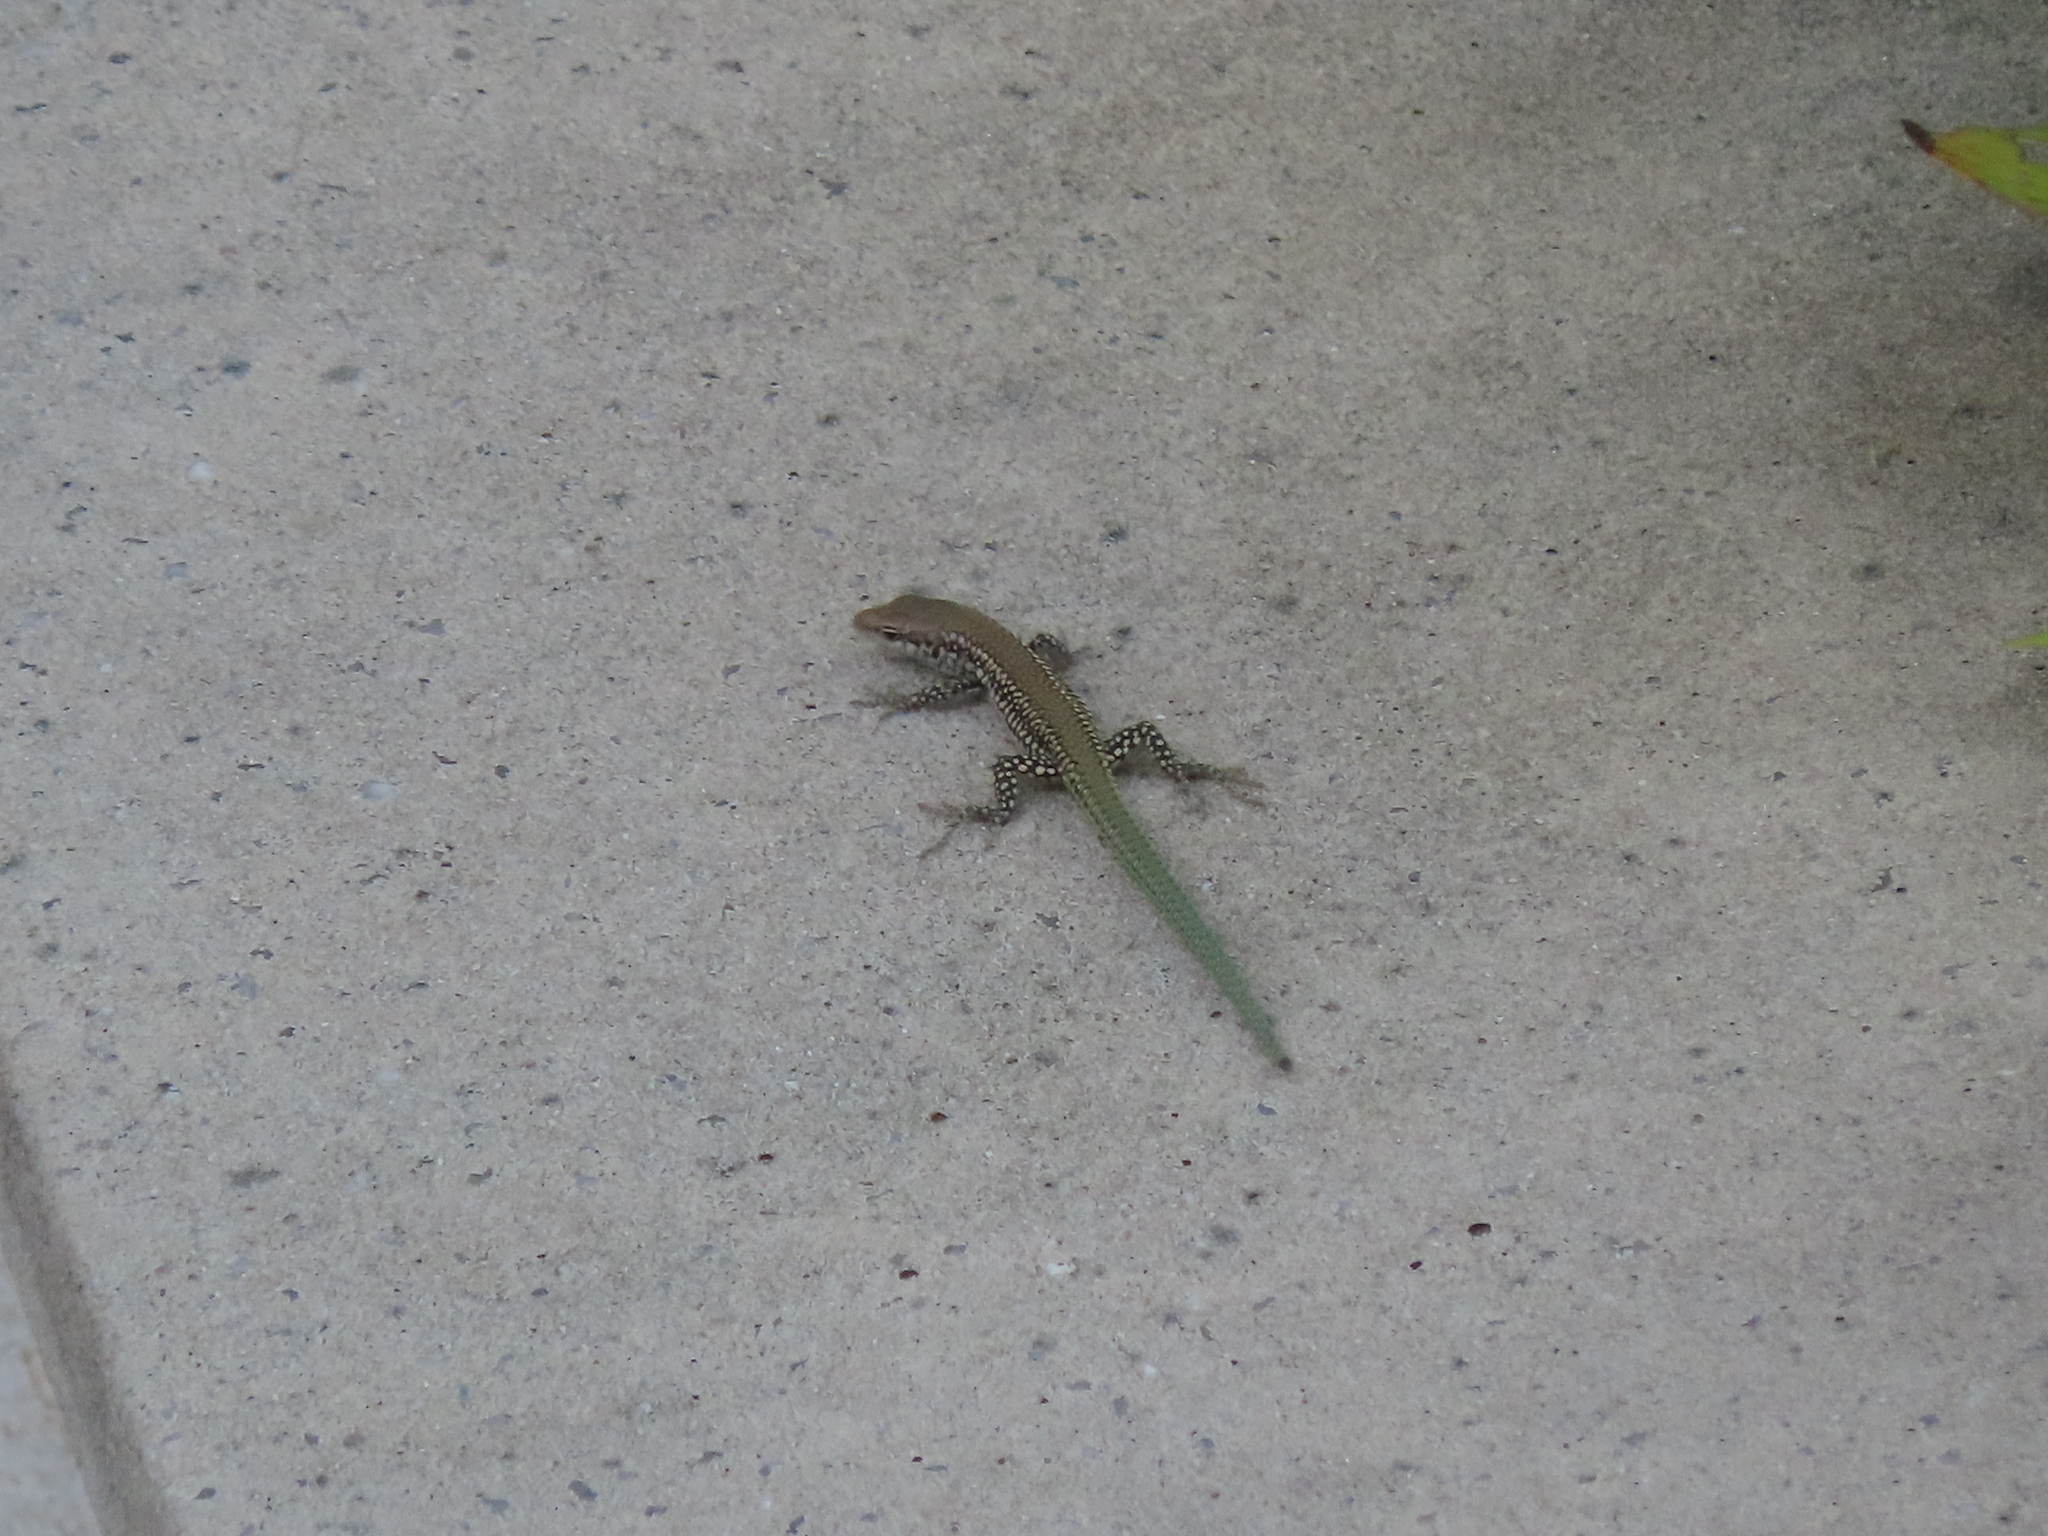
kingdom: Animalia
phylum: Chordata
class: Squamata
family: Lacertidae
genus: Podarcis
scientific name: Podarcis virescens
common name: Geniez’s wall lizard
